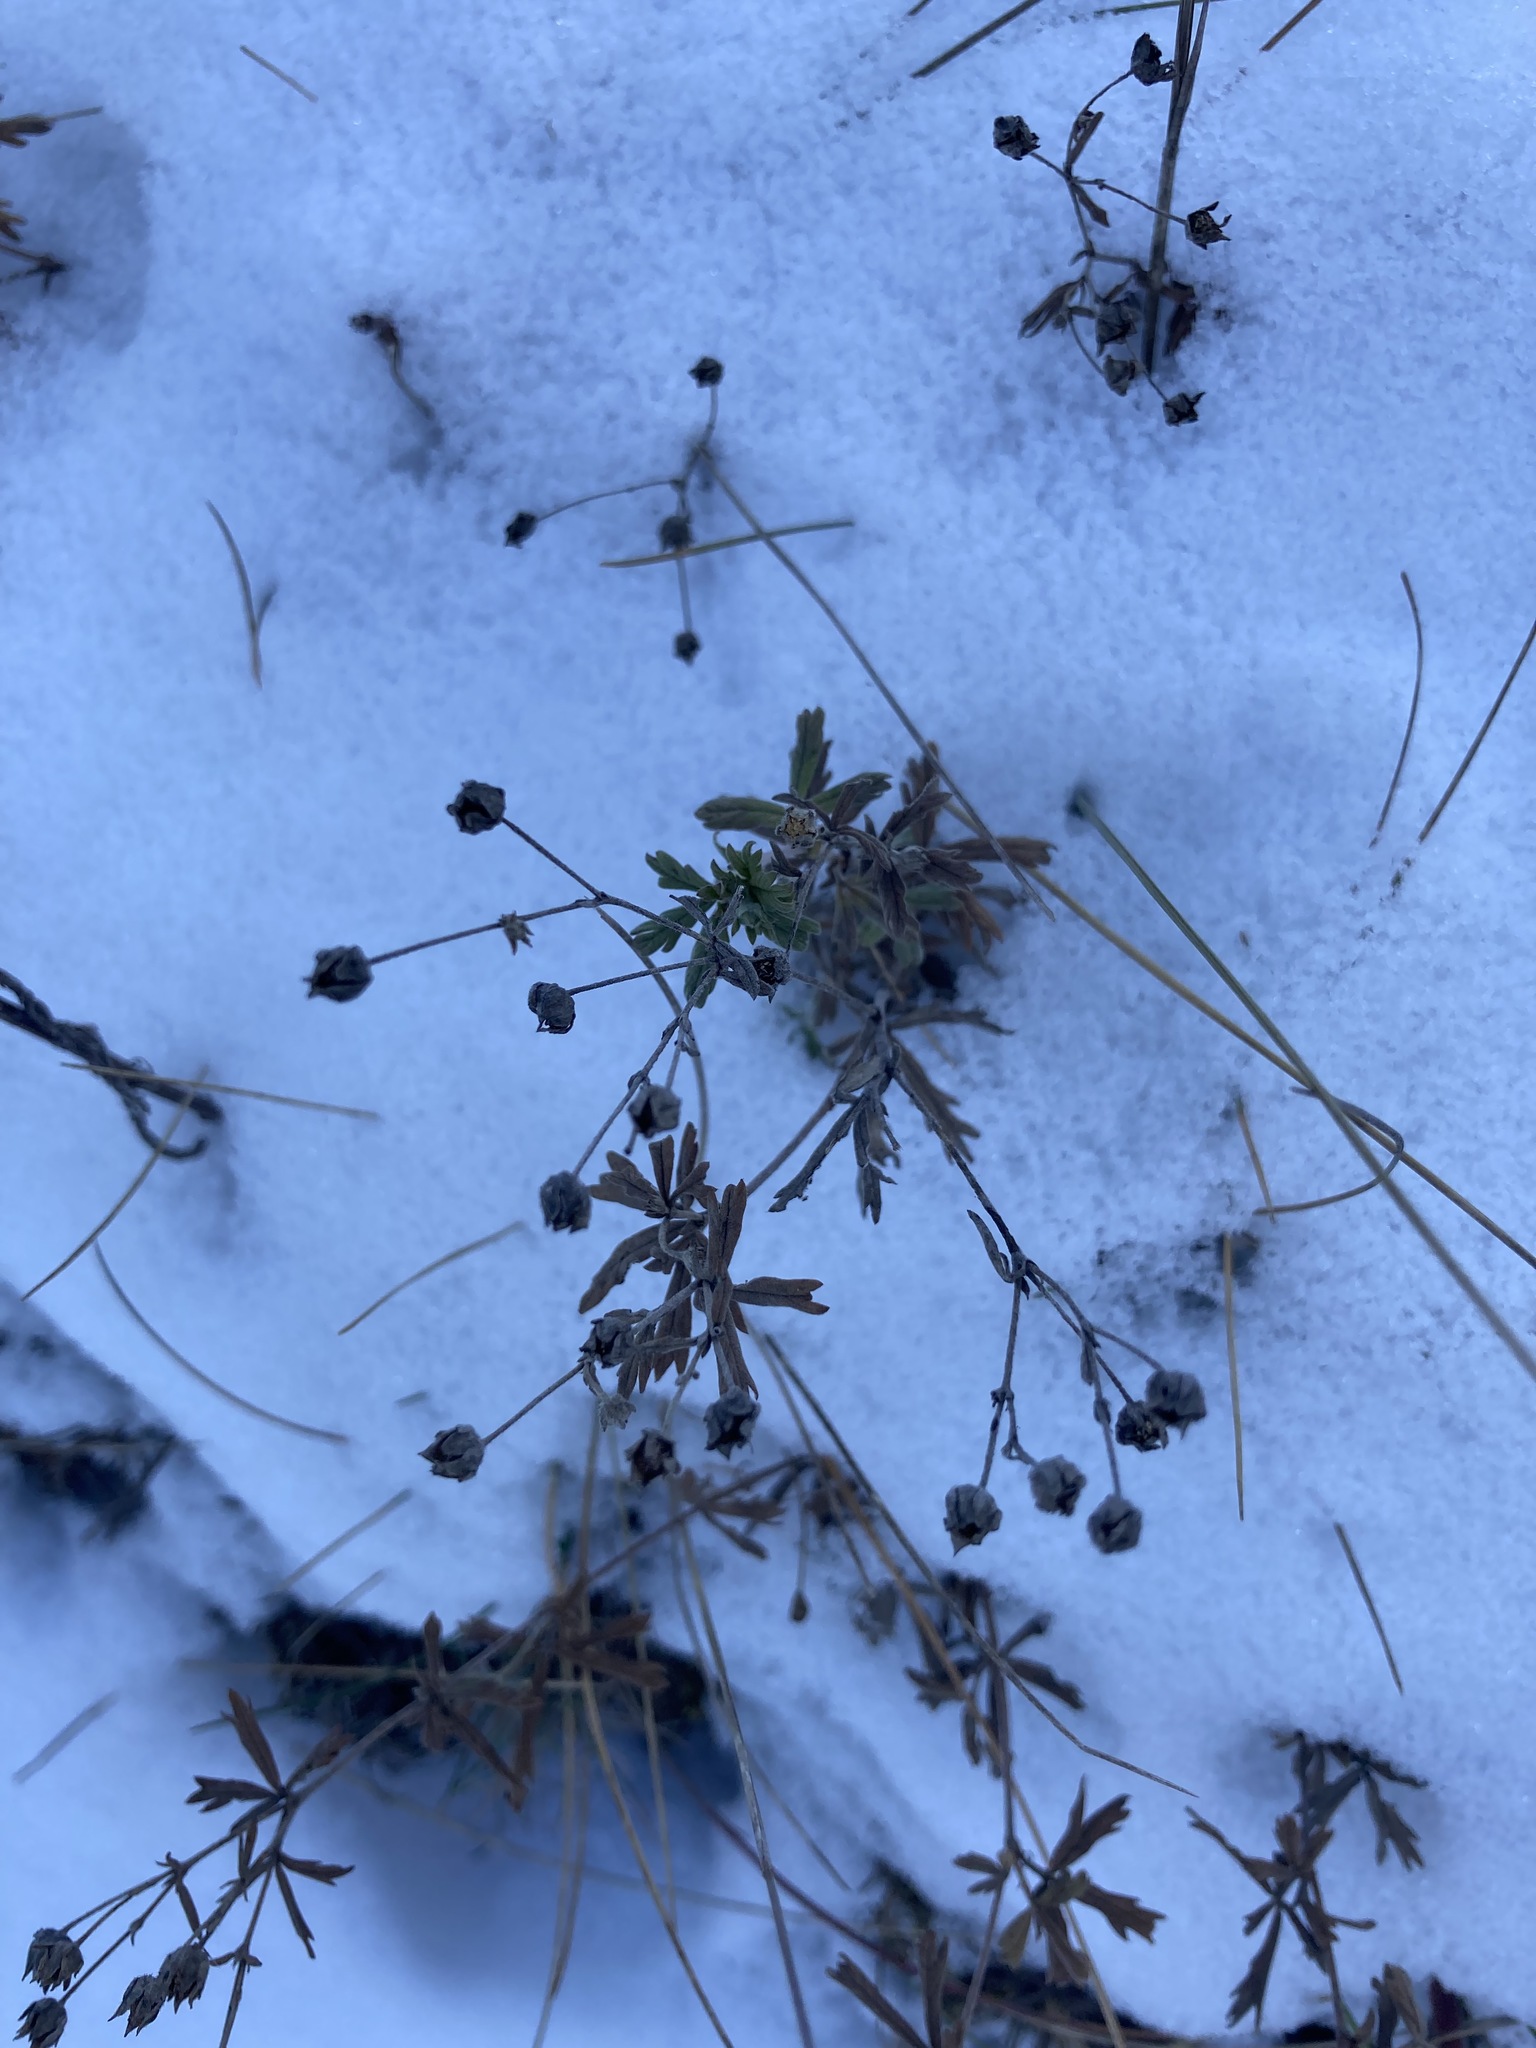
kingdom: Plantae
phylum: Tracheophyta
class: Magnoliopsida
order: Rosales
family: Rosaceae
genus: Potentilla
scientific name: Potentilla argentea
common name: Hoary cinquefoil
